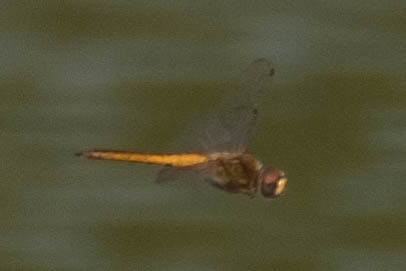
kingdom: Animalia
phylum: Arthropoda
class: Insecta
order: Odonata
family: Libellulidae
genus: Pantala
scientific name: Pantala flavescens
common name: Wandering glider
